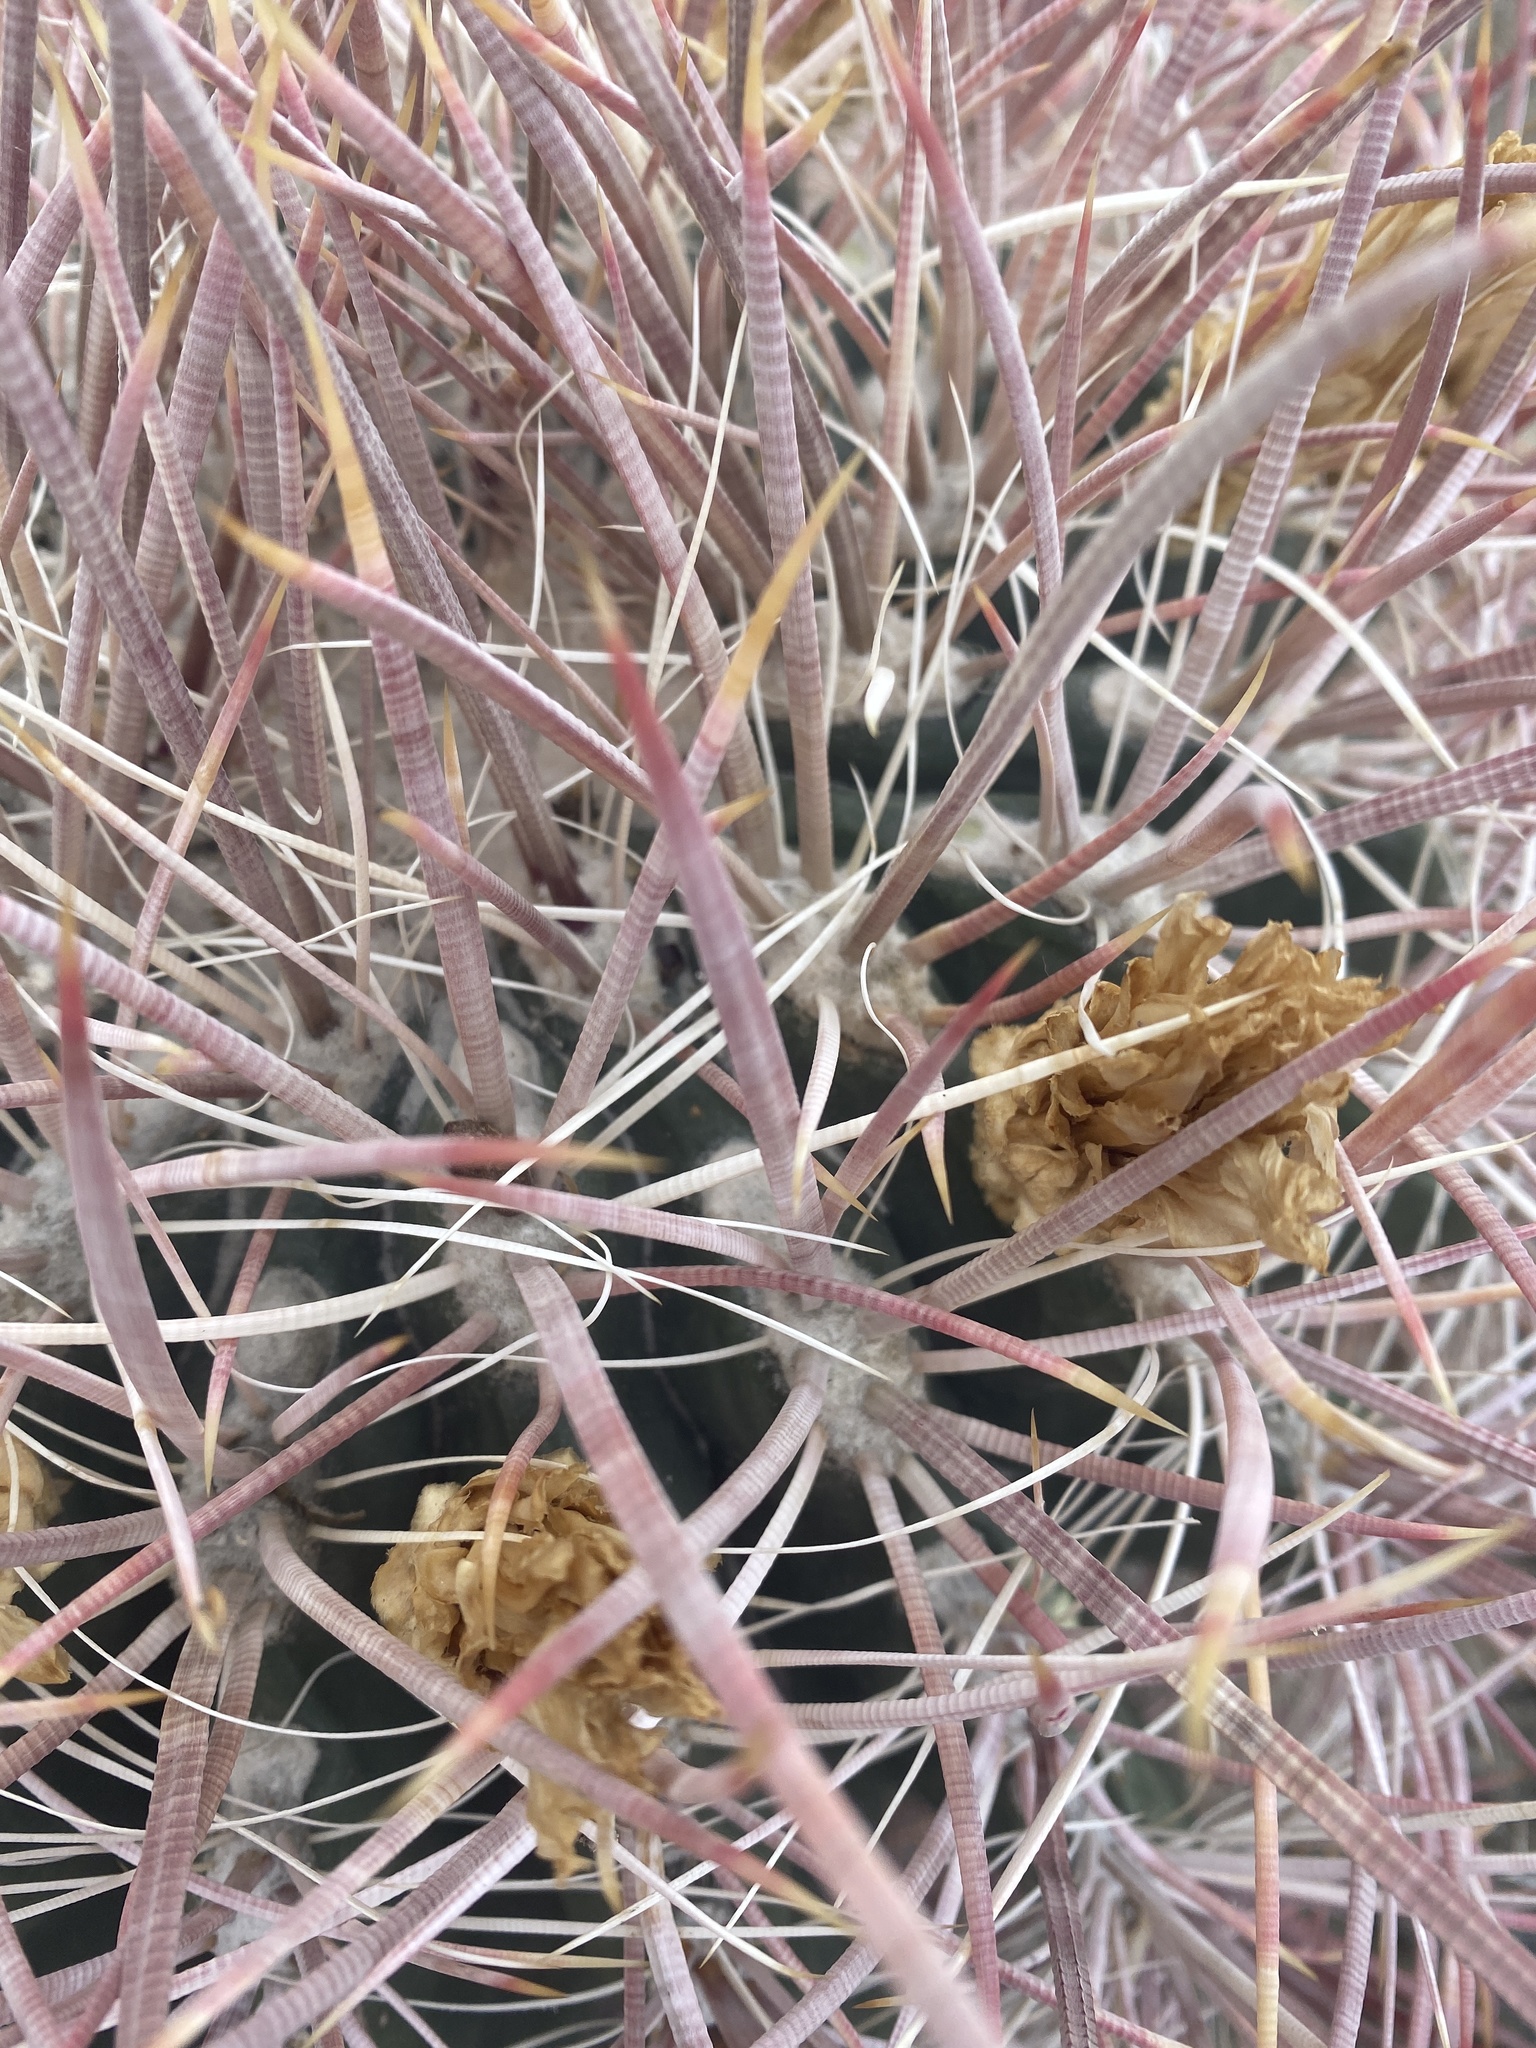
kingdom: Plantae
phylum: Tracheophyta
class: Magnoliopsida
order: Caryophyllales
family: Cactaceae
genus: Ferocactus
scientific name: Ferocactus cylindraceus
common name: California barrel cactus
